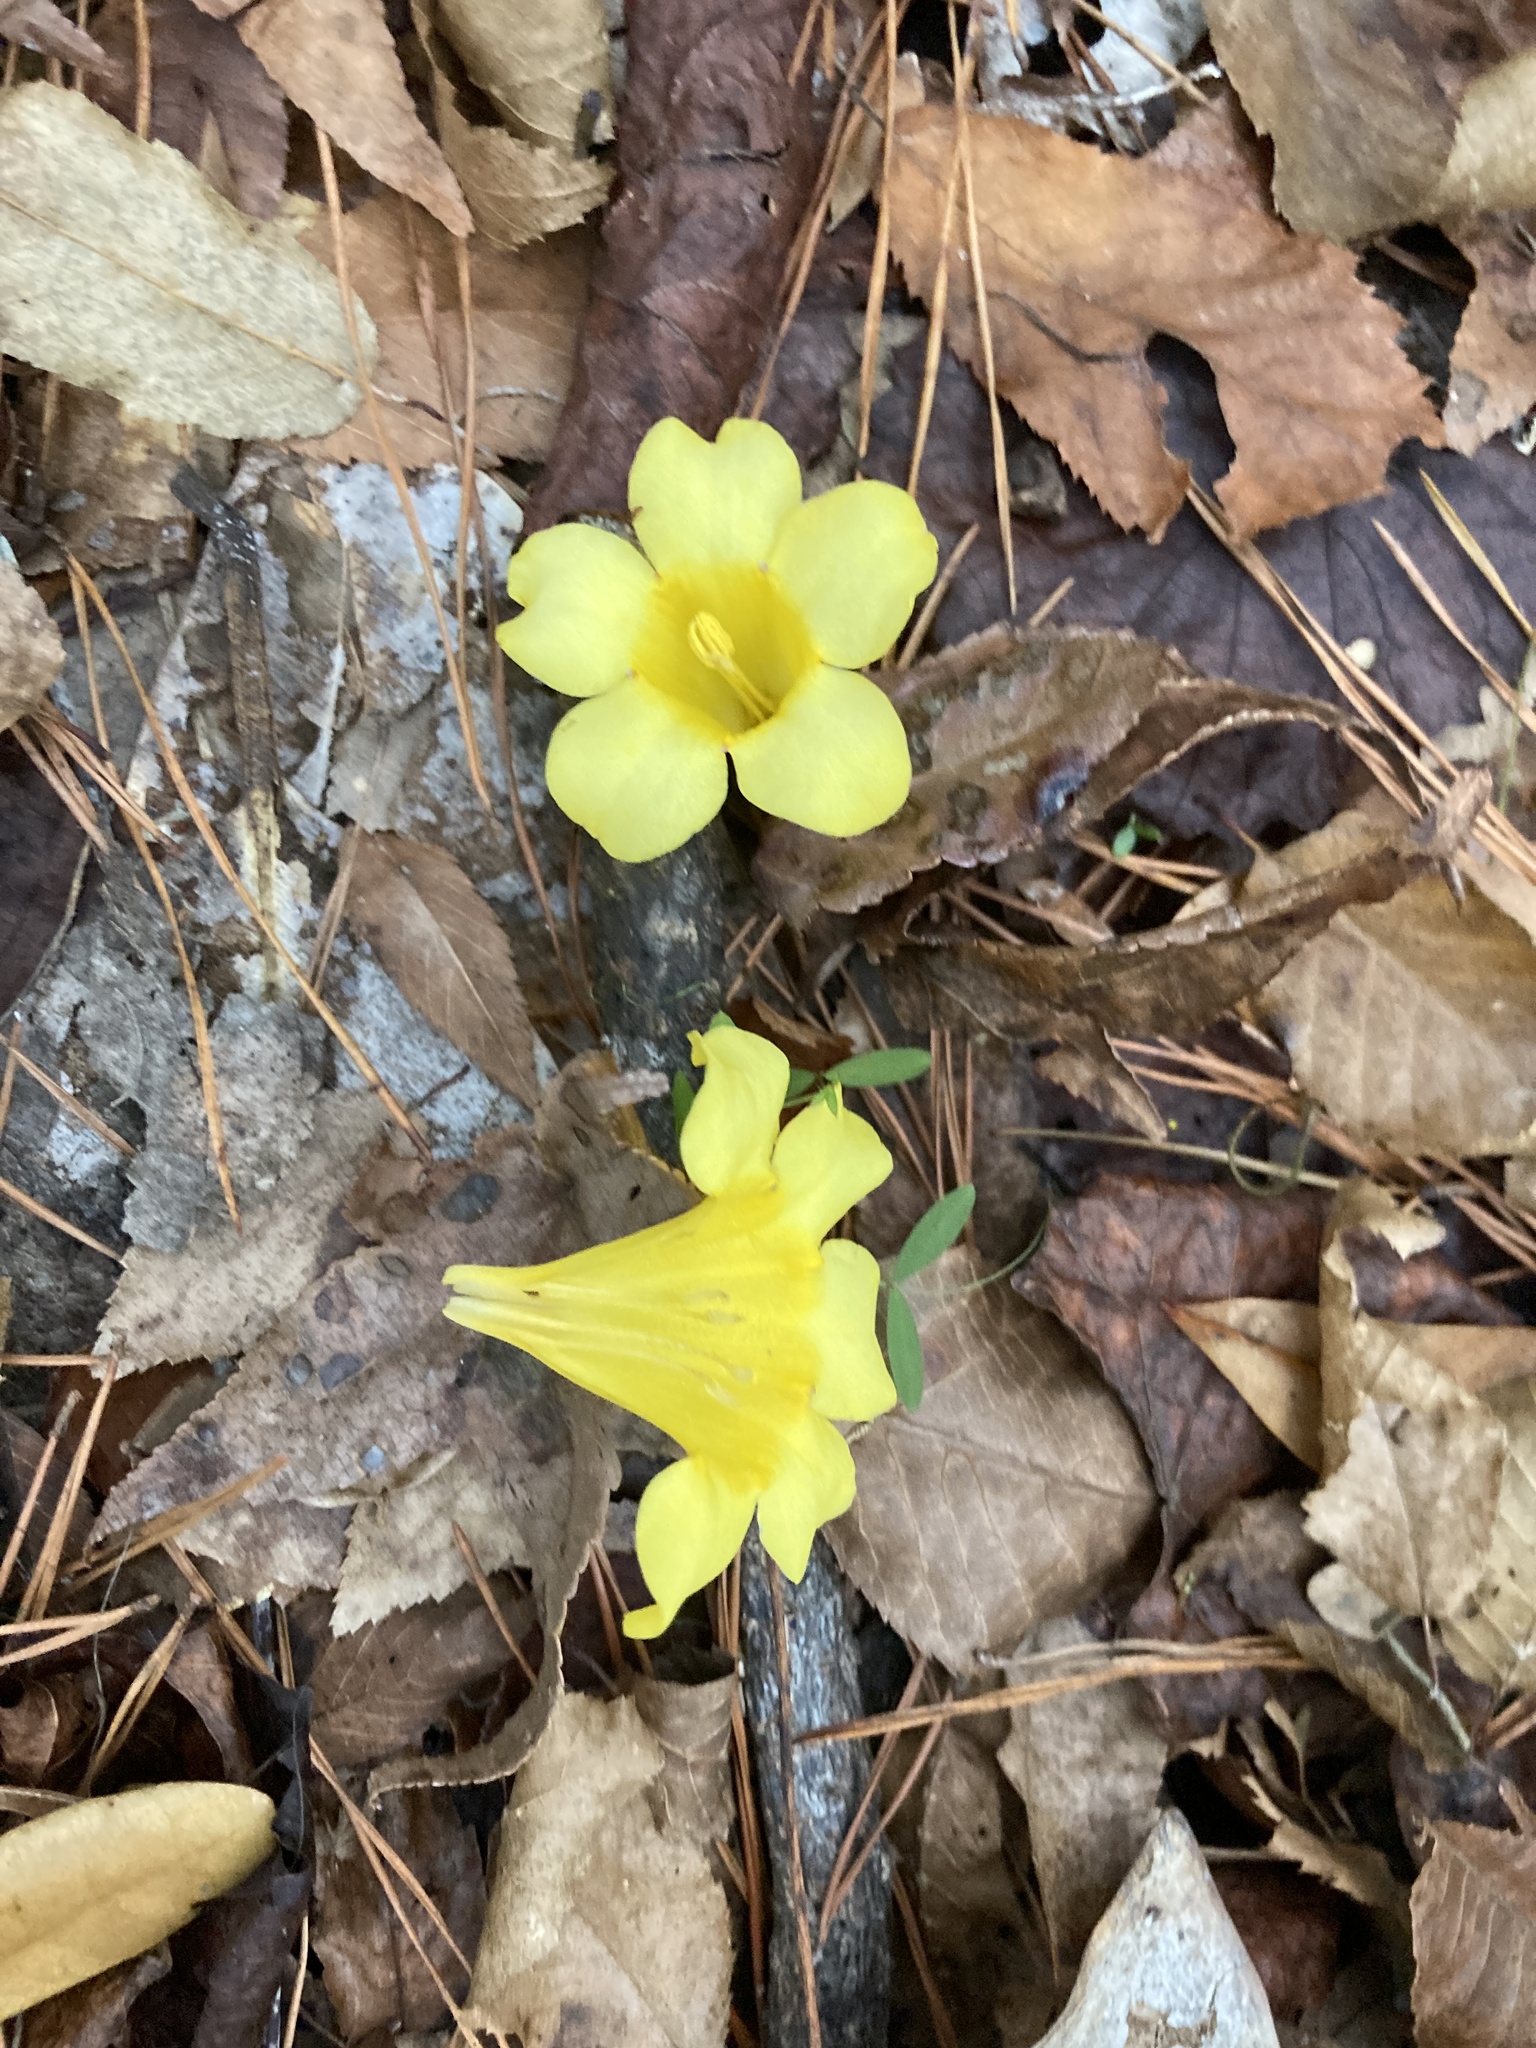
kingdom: Plantae
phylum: Tracheophyta
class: Magnoliopsida
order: Gentianales
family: Gelsemiaceae
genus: Gelsemium
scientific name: Gelsemium sempervirens
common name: Carolina-jasmine
